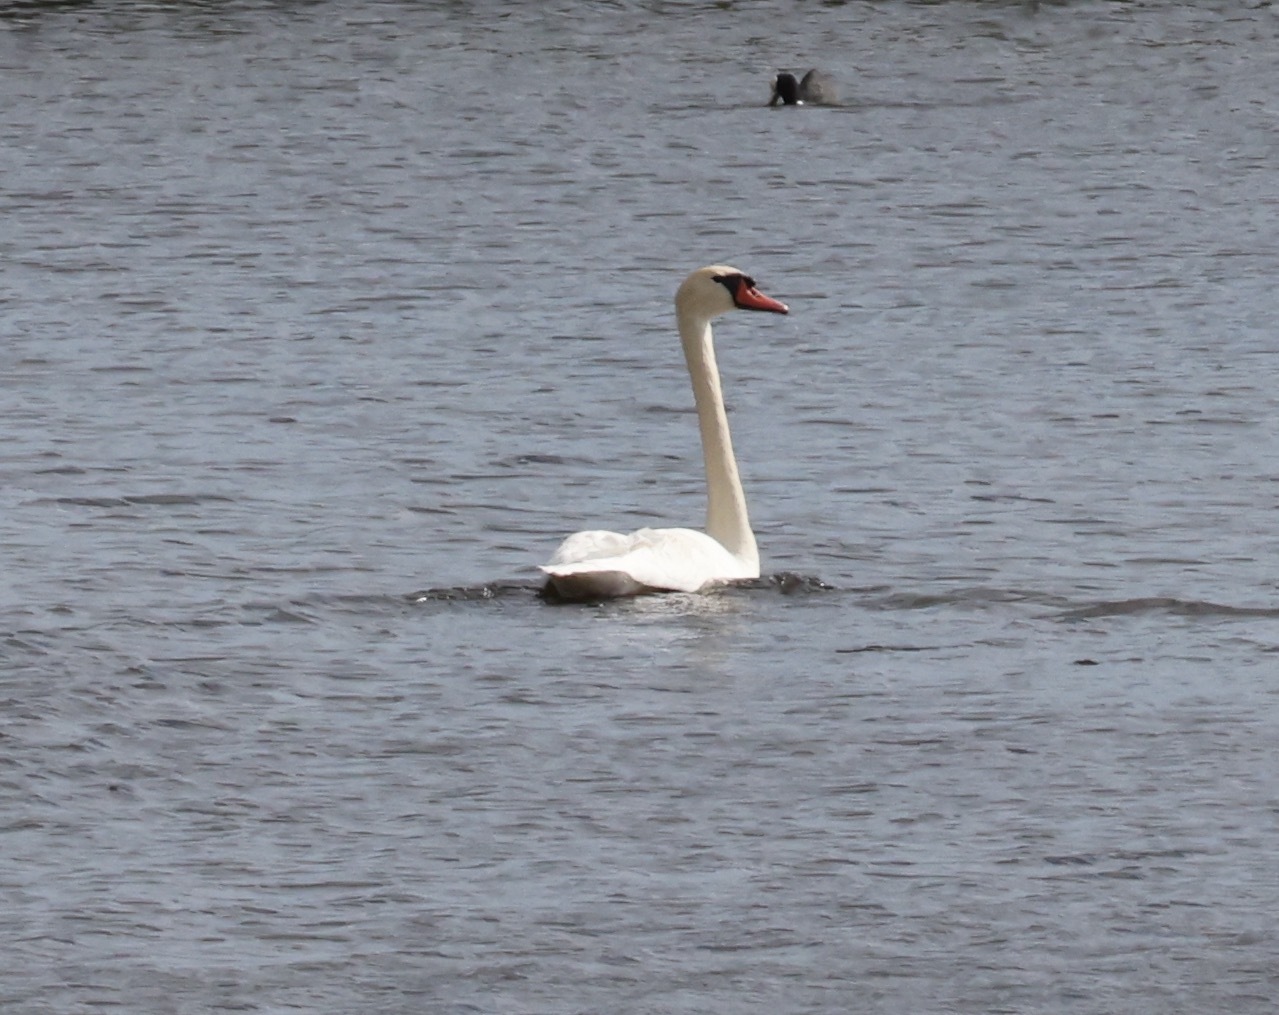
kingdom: Animalia
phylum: Chordata
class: Aves
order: Anseriformes
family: Anatidae
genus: Cygnus
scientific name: Cygnus olor
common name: Mute swan
